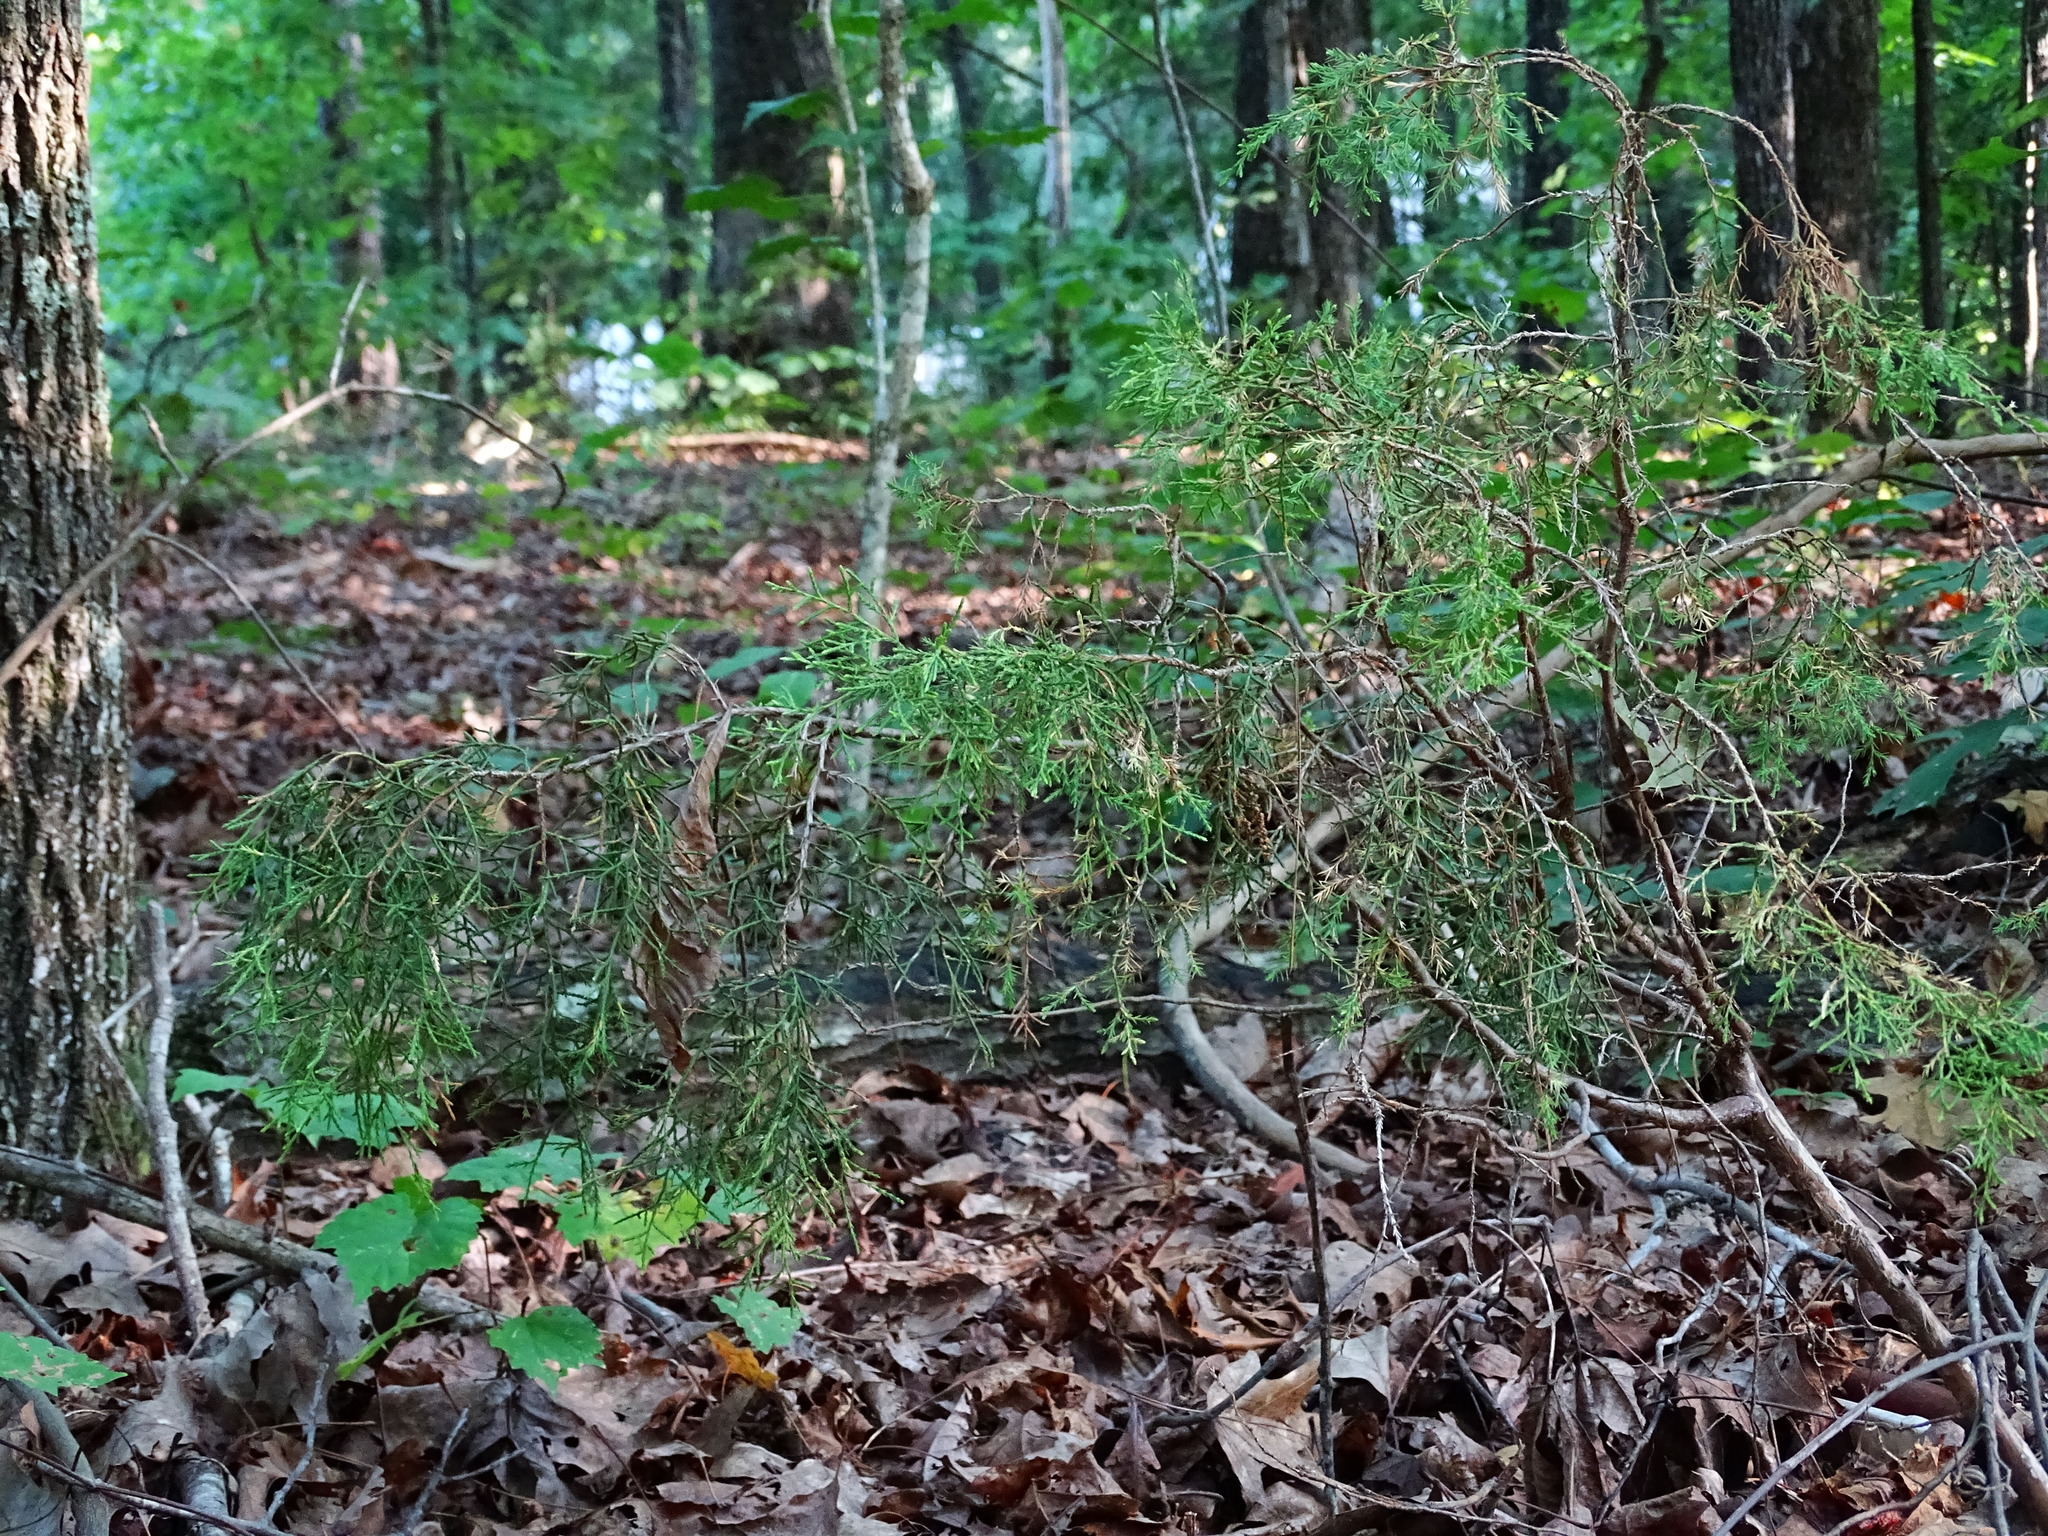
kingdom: Plantae
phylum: Tracheophyta
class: Pinopsida
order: Pinales
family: Cupressaceae
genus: Juniperus
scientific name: Juniperus virginiana
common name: Red juniper
